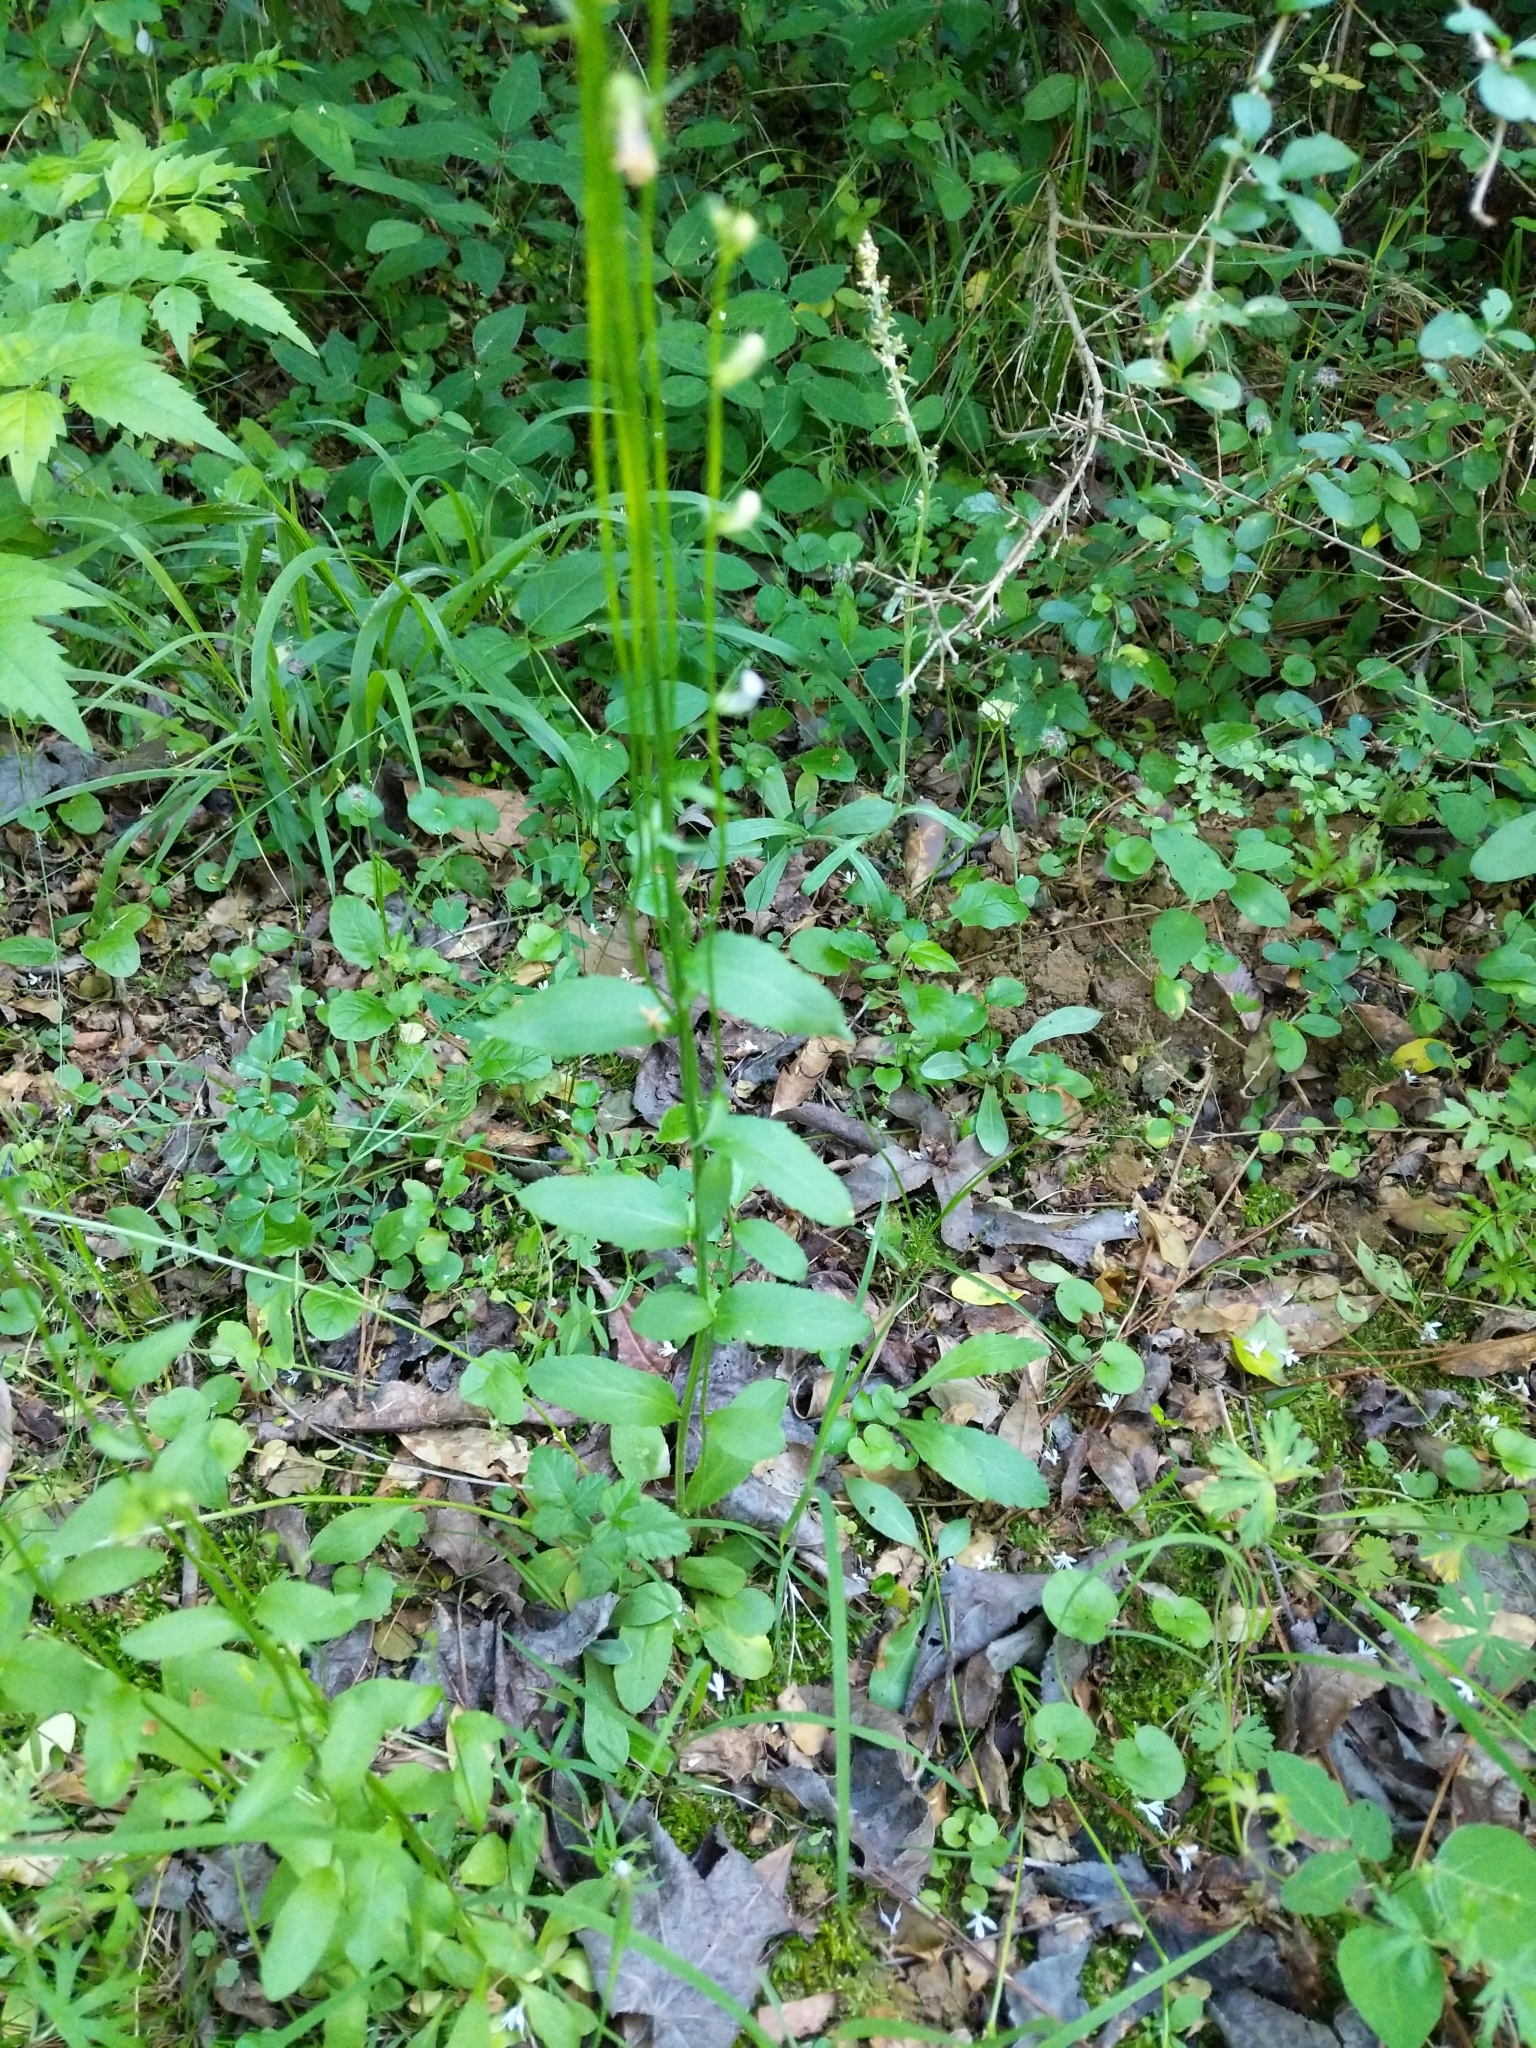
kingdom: Plantae
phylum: Tracheophyta
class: Magnoliopsida
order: Asterales
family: Campanulaceae
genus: Lobelia
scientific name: Lobelia spicata
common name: Pale-spike lobelia
